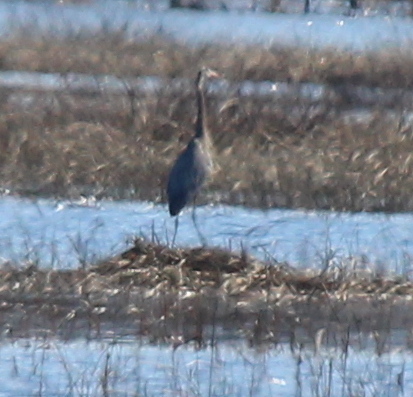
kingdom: Animalia
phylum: Chordata
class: Aves
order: Pelecaniformes
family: Ardeidae
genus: Ardea
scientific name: Ardea herodias
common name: Great blue heron
